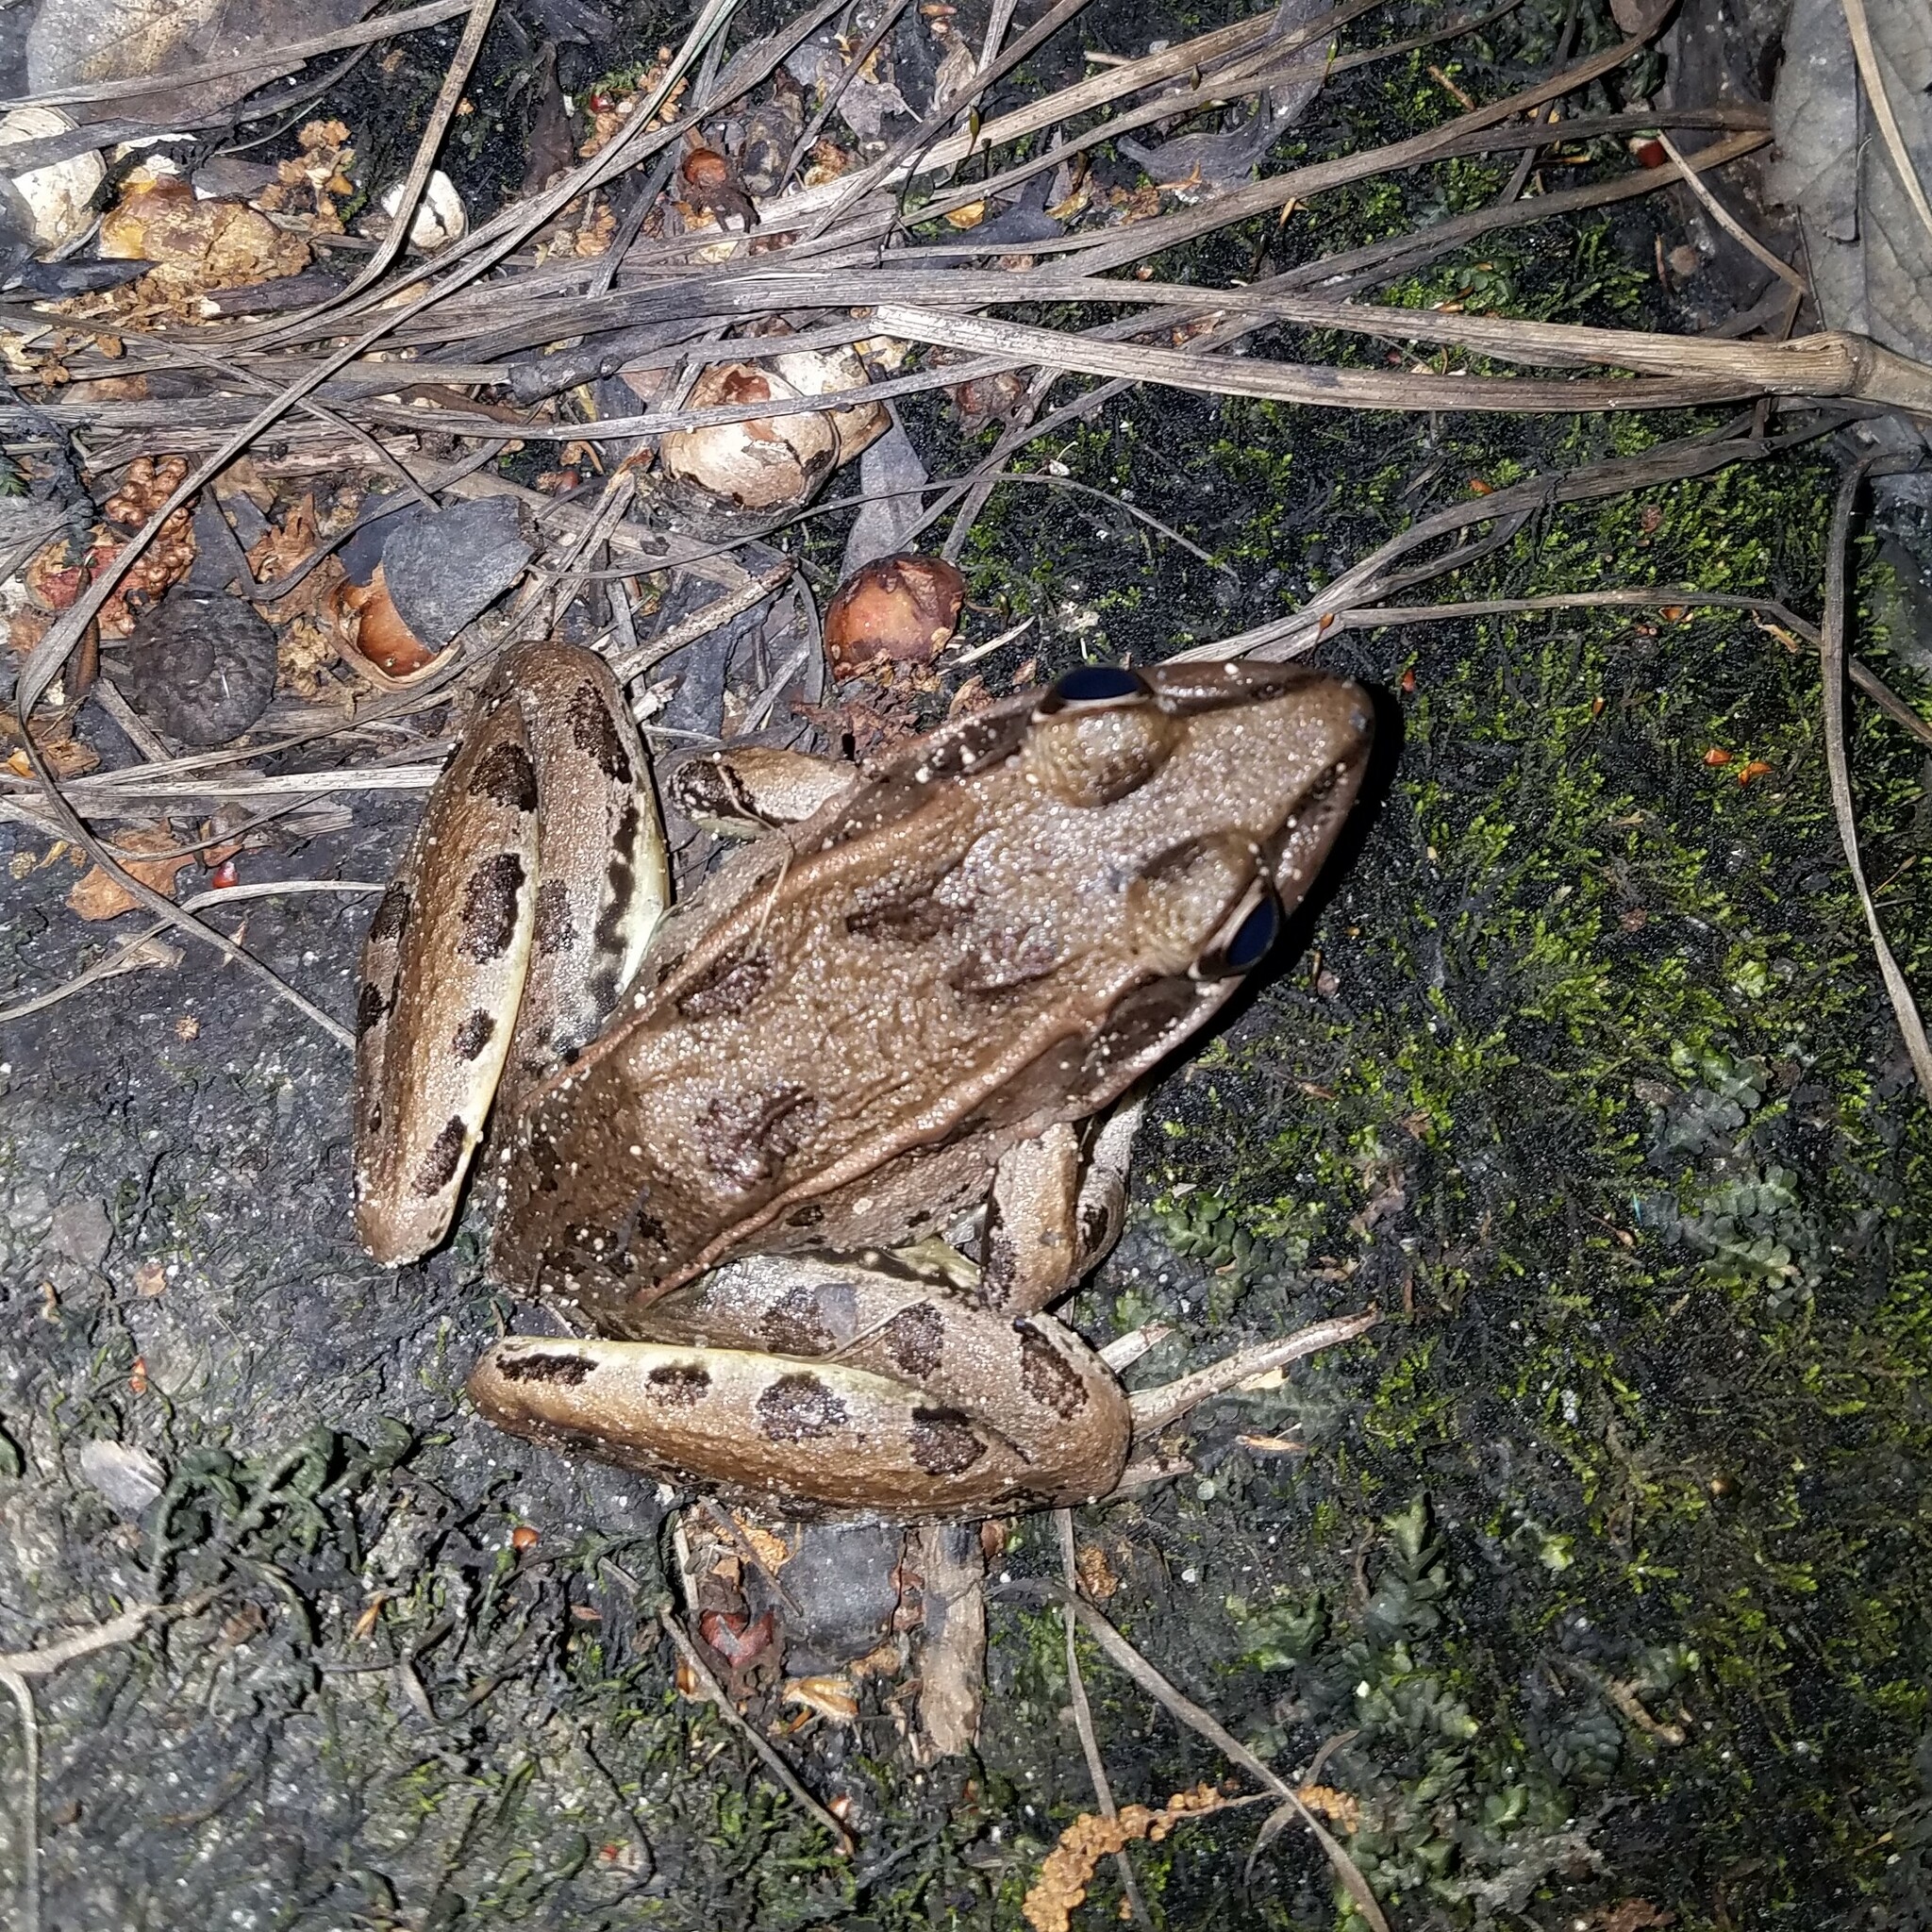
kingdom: Animalia
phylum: Chordata
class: Amphibia
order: Anura
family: Ranidae
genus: Lithobates
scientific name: Lithobates sphenocephalus
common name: Southern leopard frog
